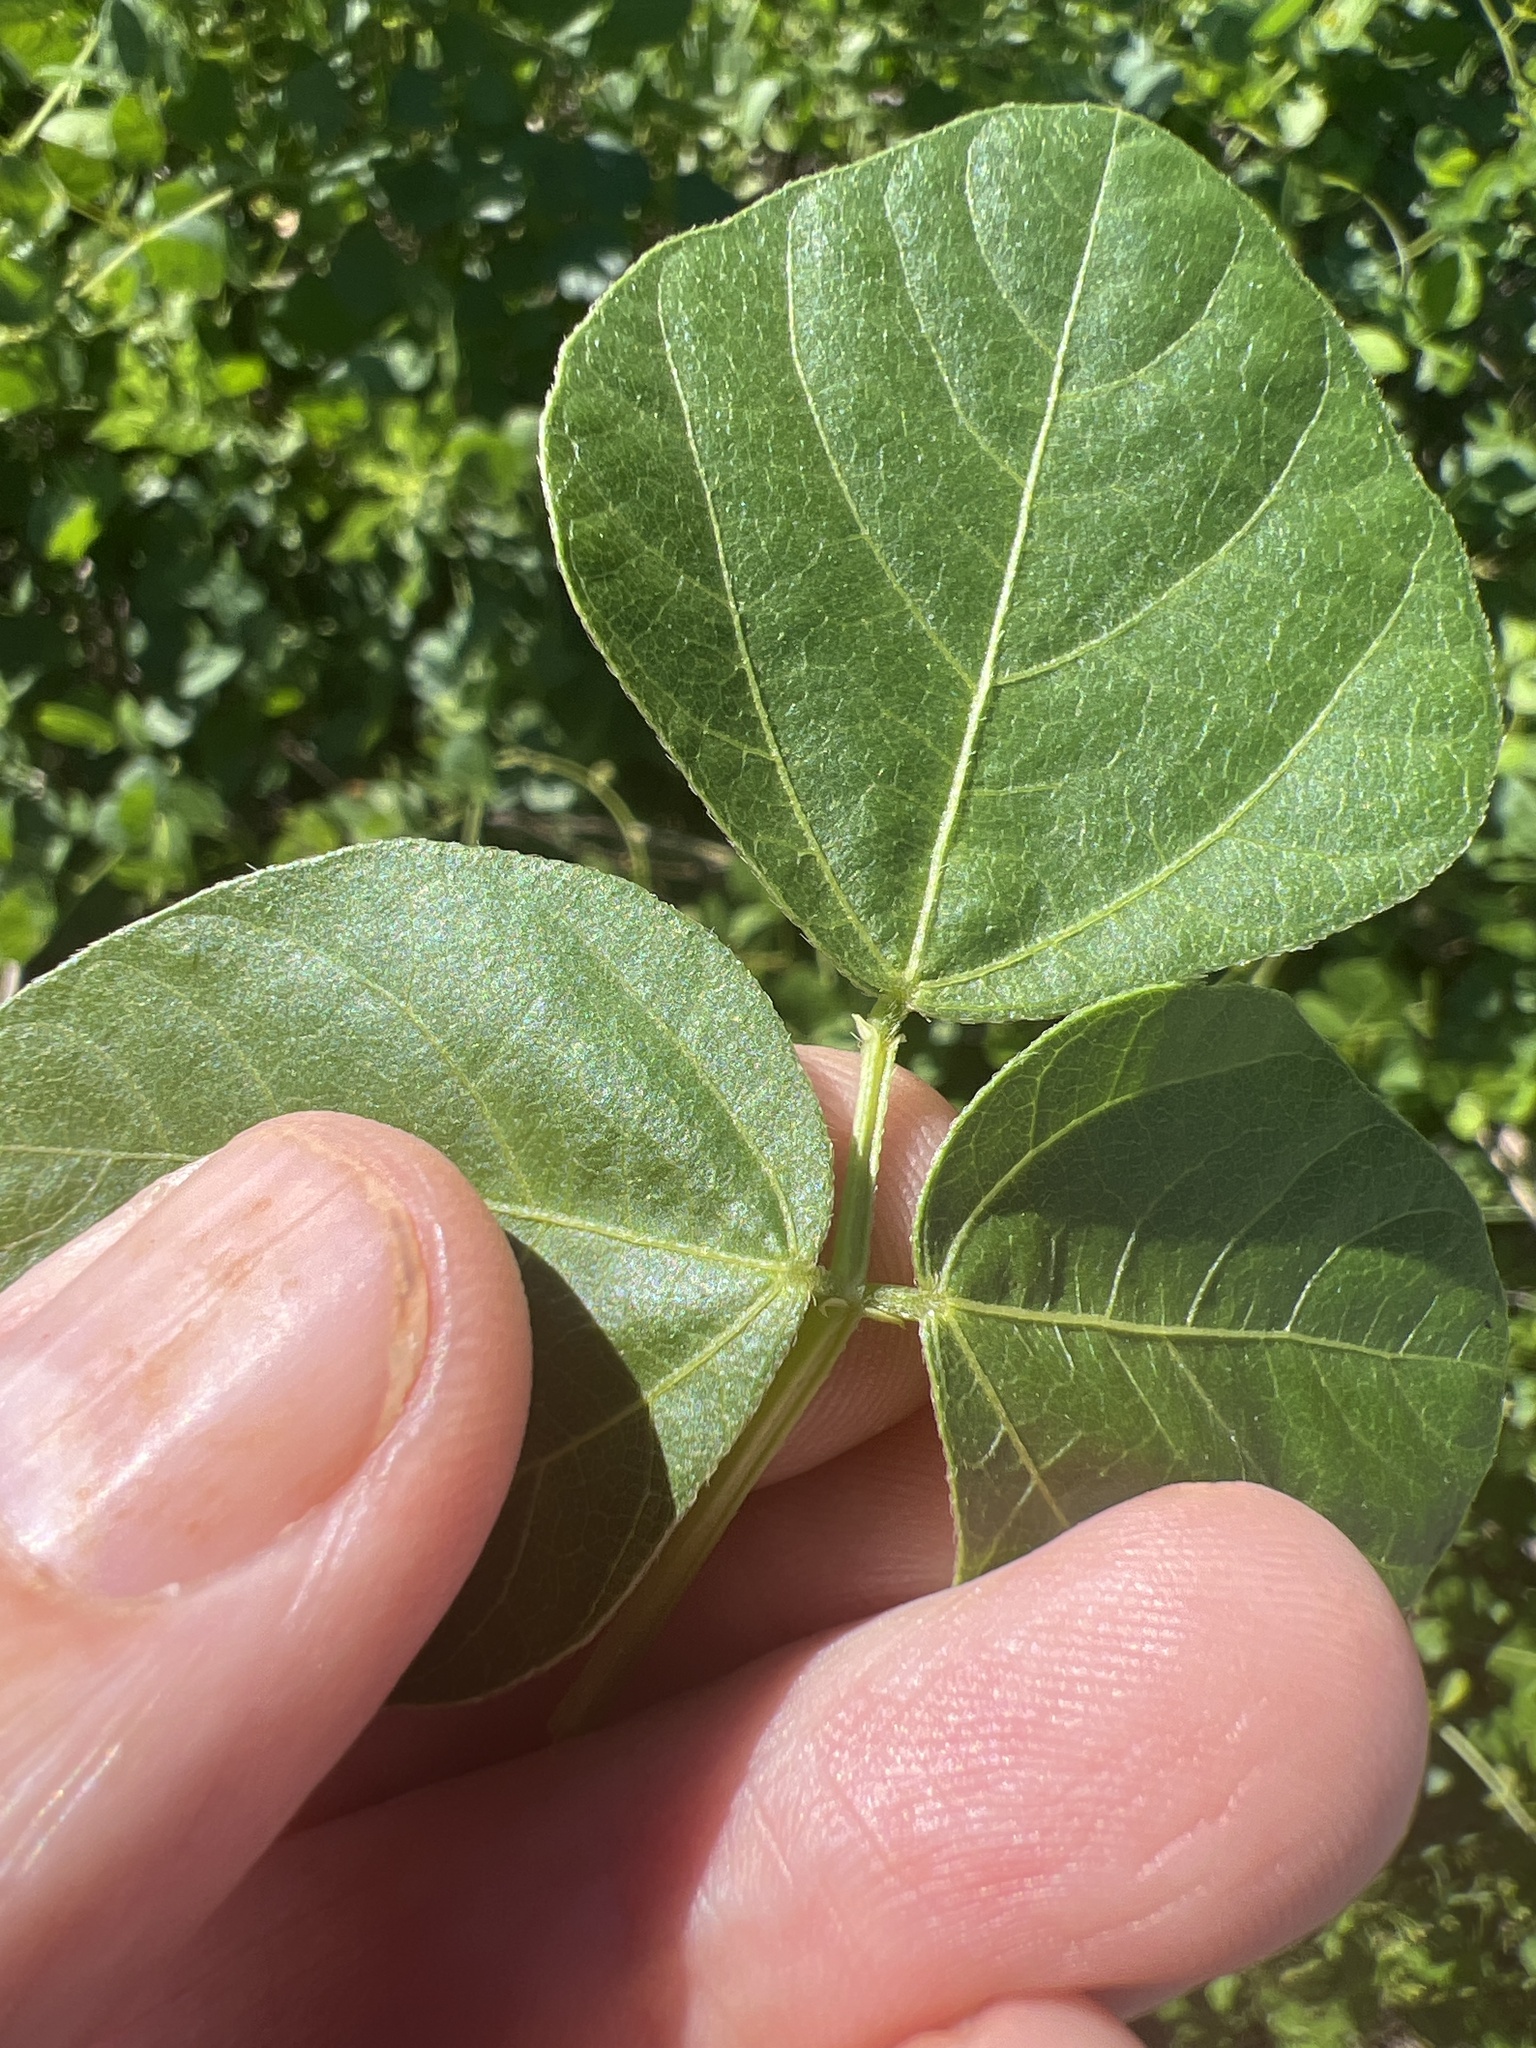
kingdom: Plantae
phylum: Tracheophyta
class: Magnoliopsida
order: Fabales
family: Fabaceae
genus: Strophostyles
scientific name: Strophostyles helvola
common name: Trailing wild bean
